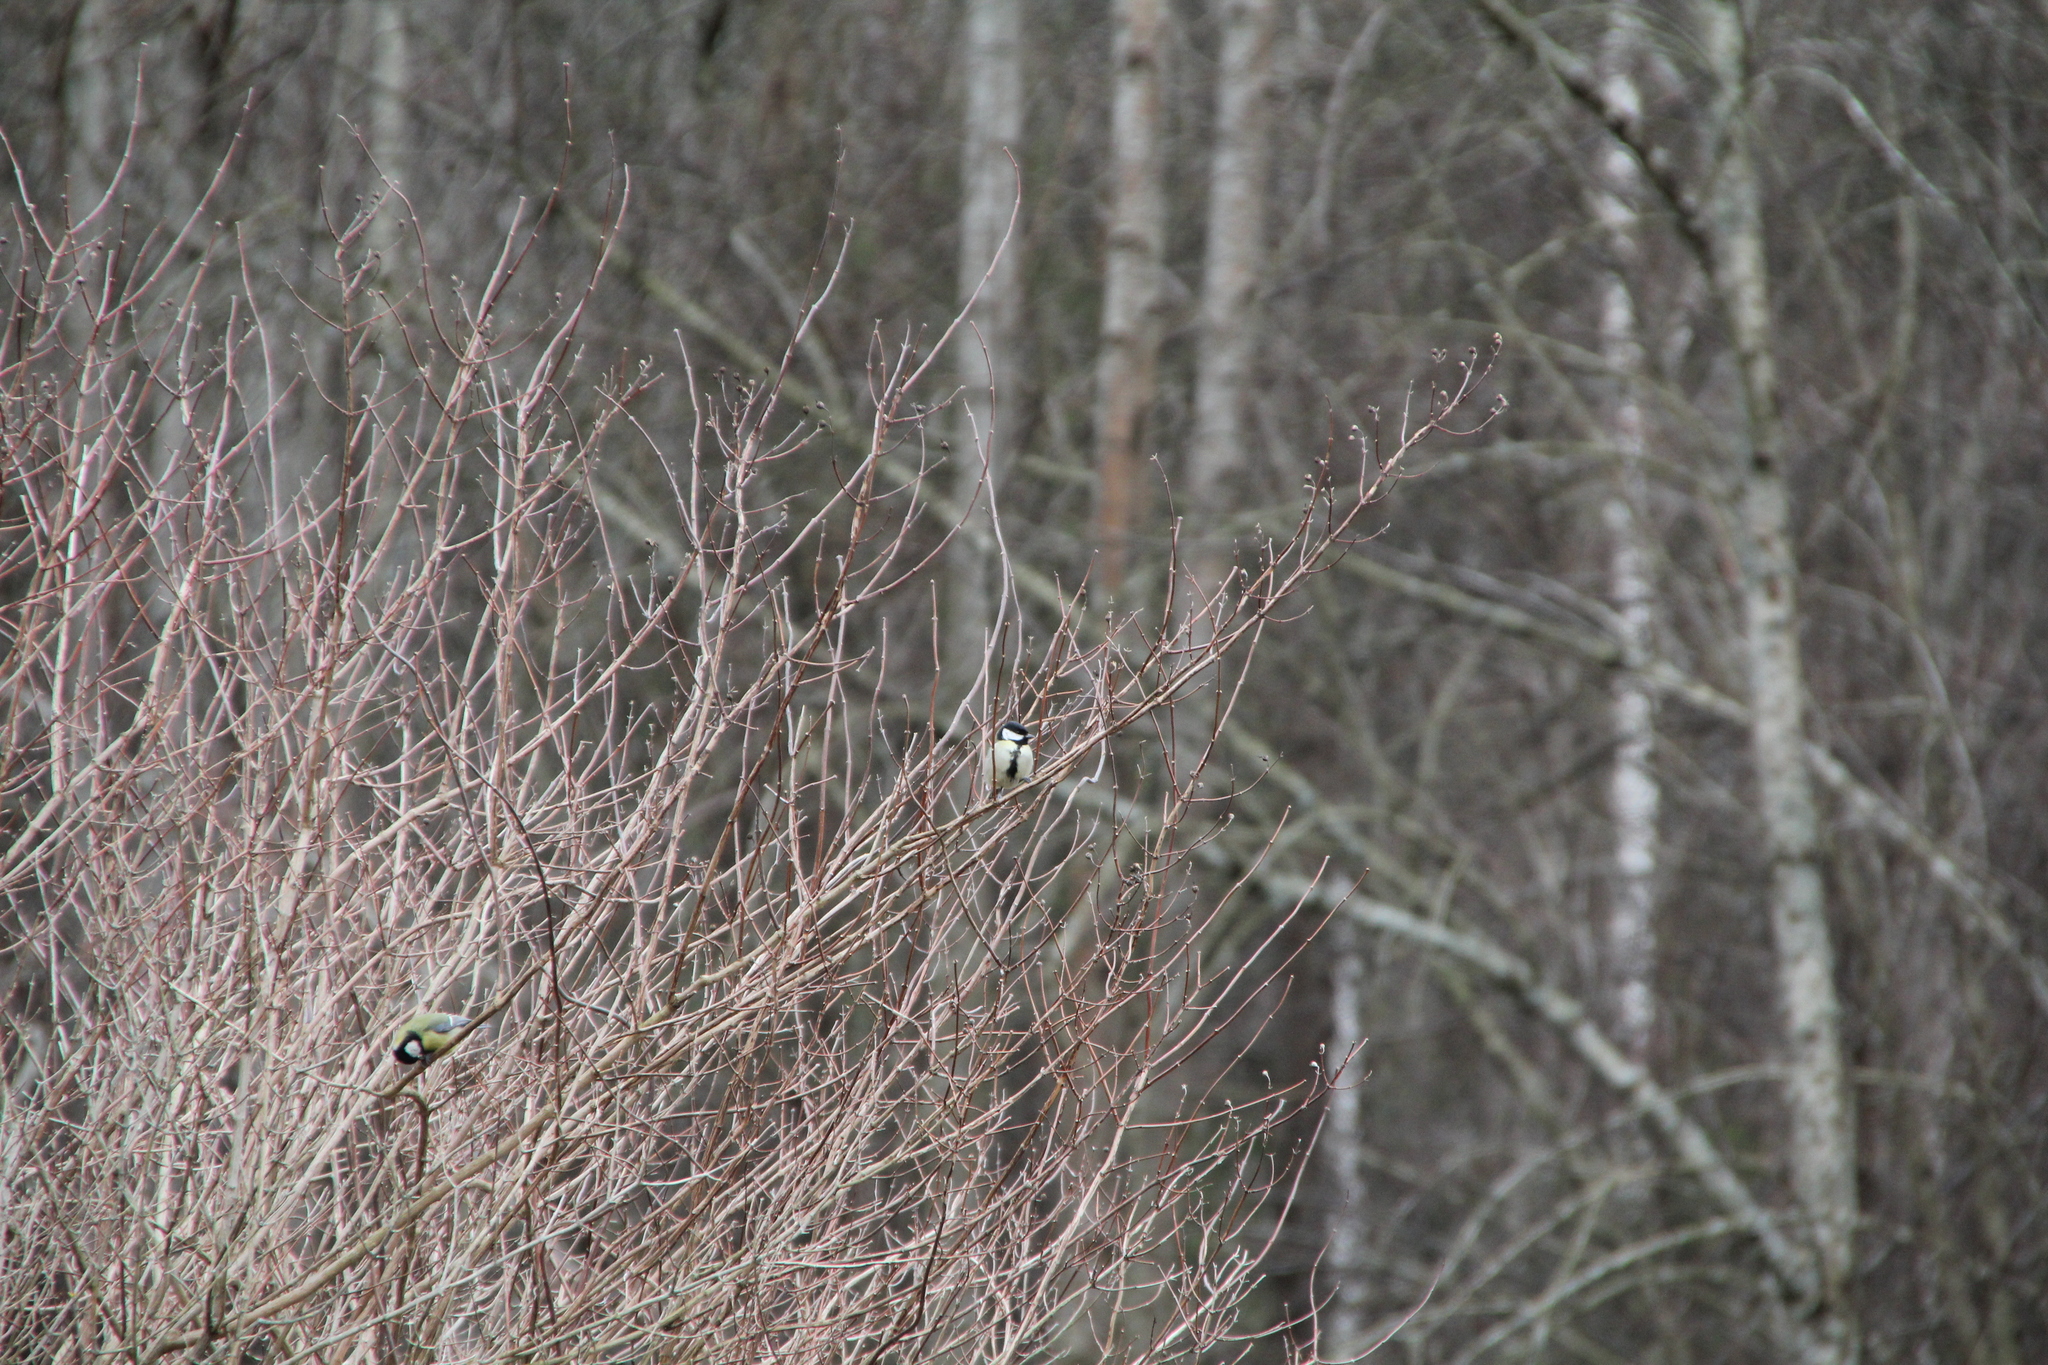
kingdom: Animalia
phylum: Chordata
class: Aves
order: Passeriformes
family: Paridae
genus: Parus
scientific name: Parus major
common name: Great tit
